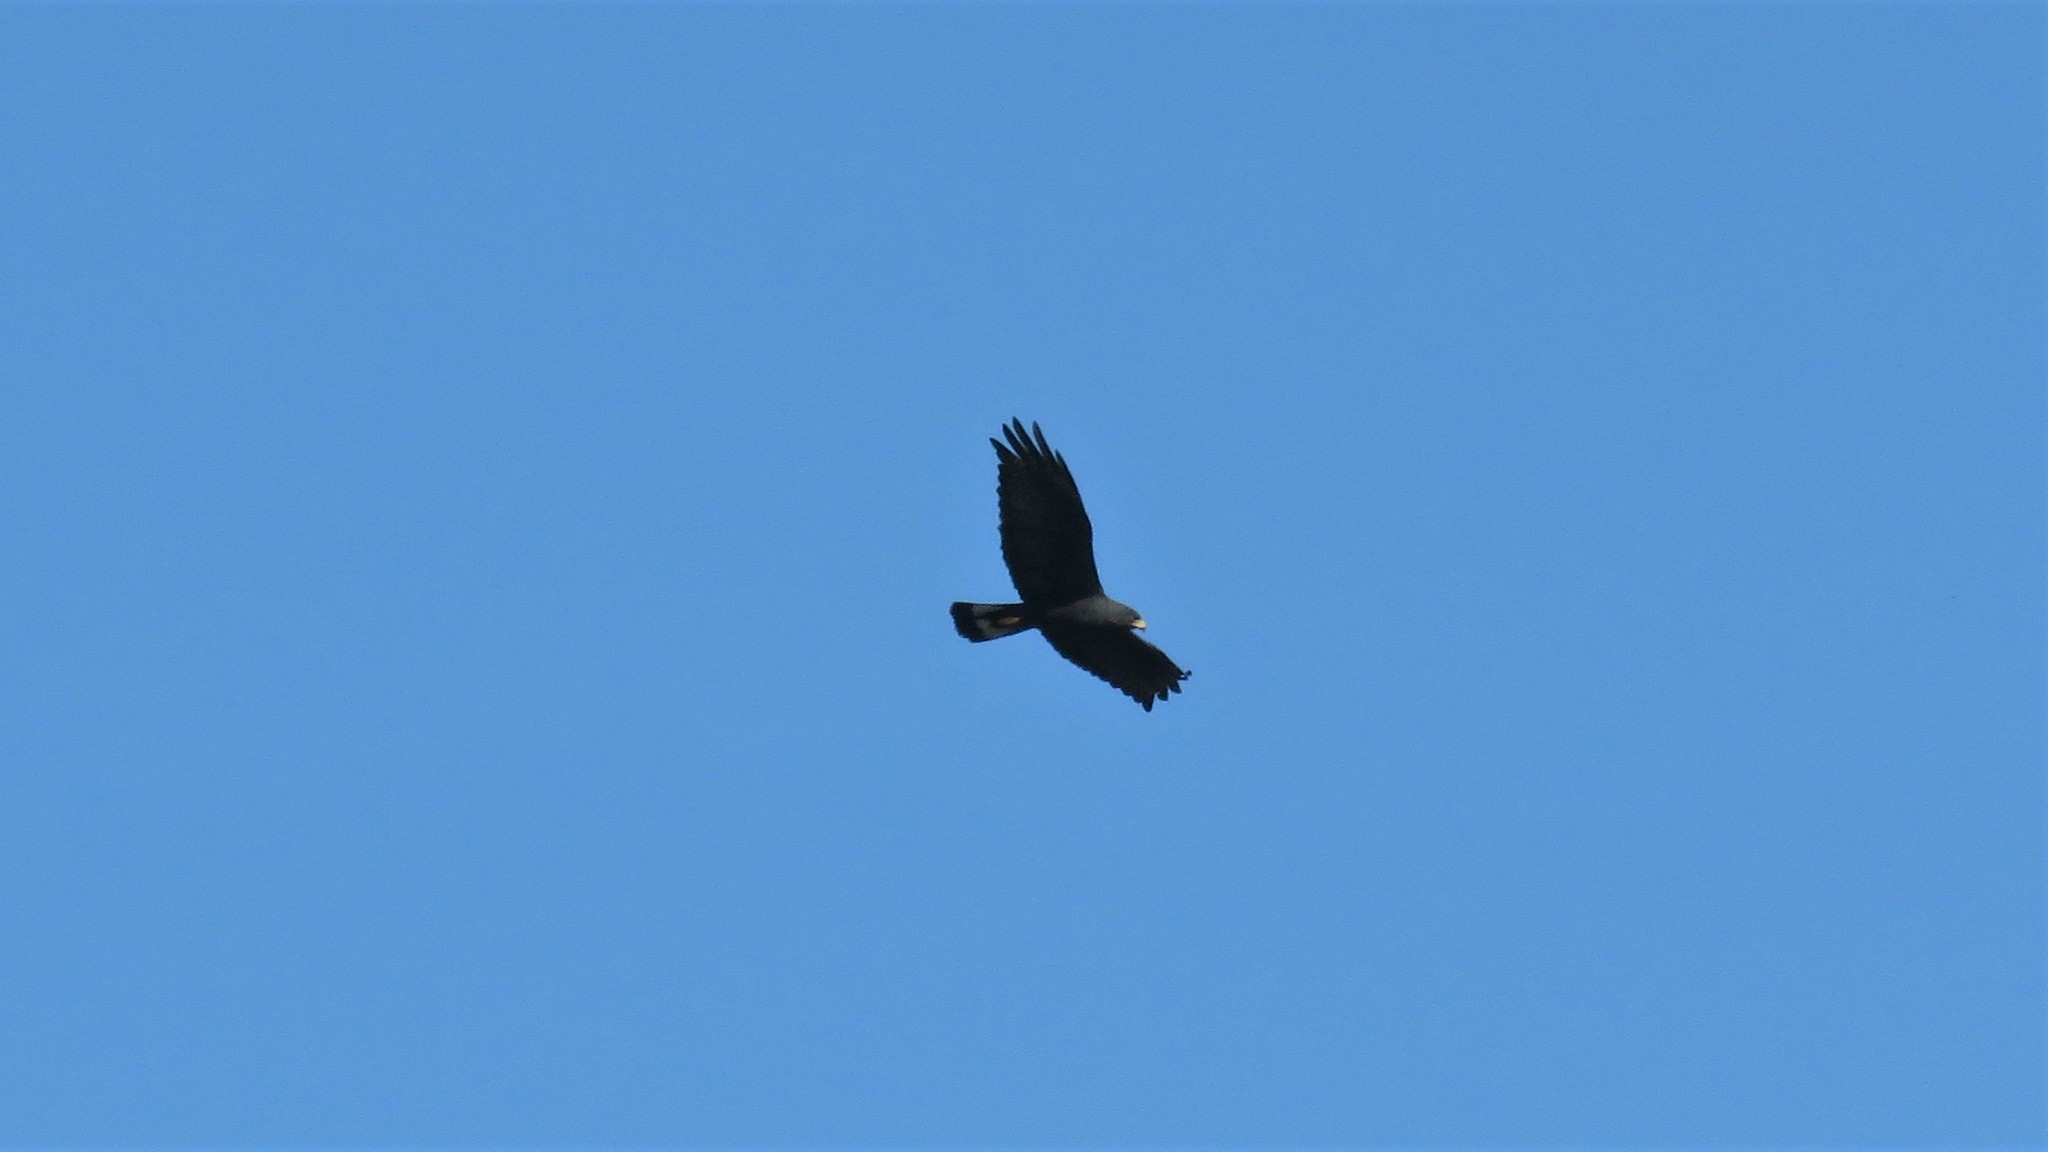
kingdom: Animalia
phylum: Chordata
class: Aves
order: Accipitriformes
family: Accipitridae
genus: Buteo
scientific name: Buteo albonotatus
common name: Zone-tailed hawk
